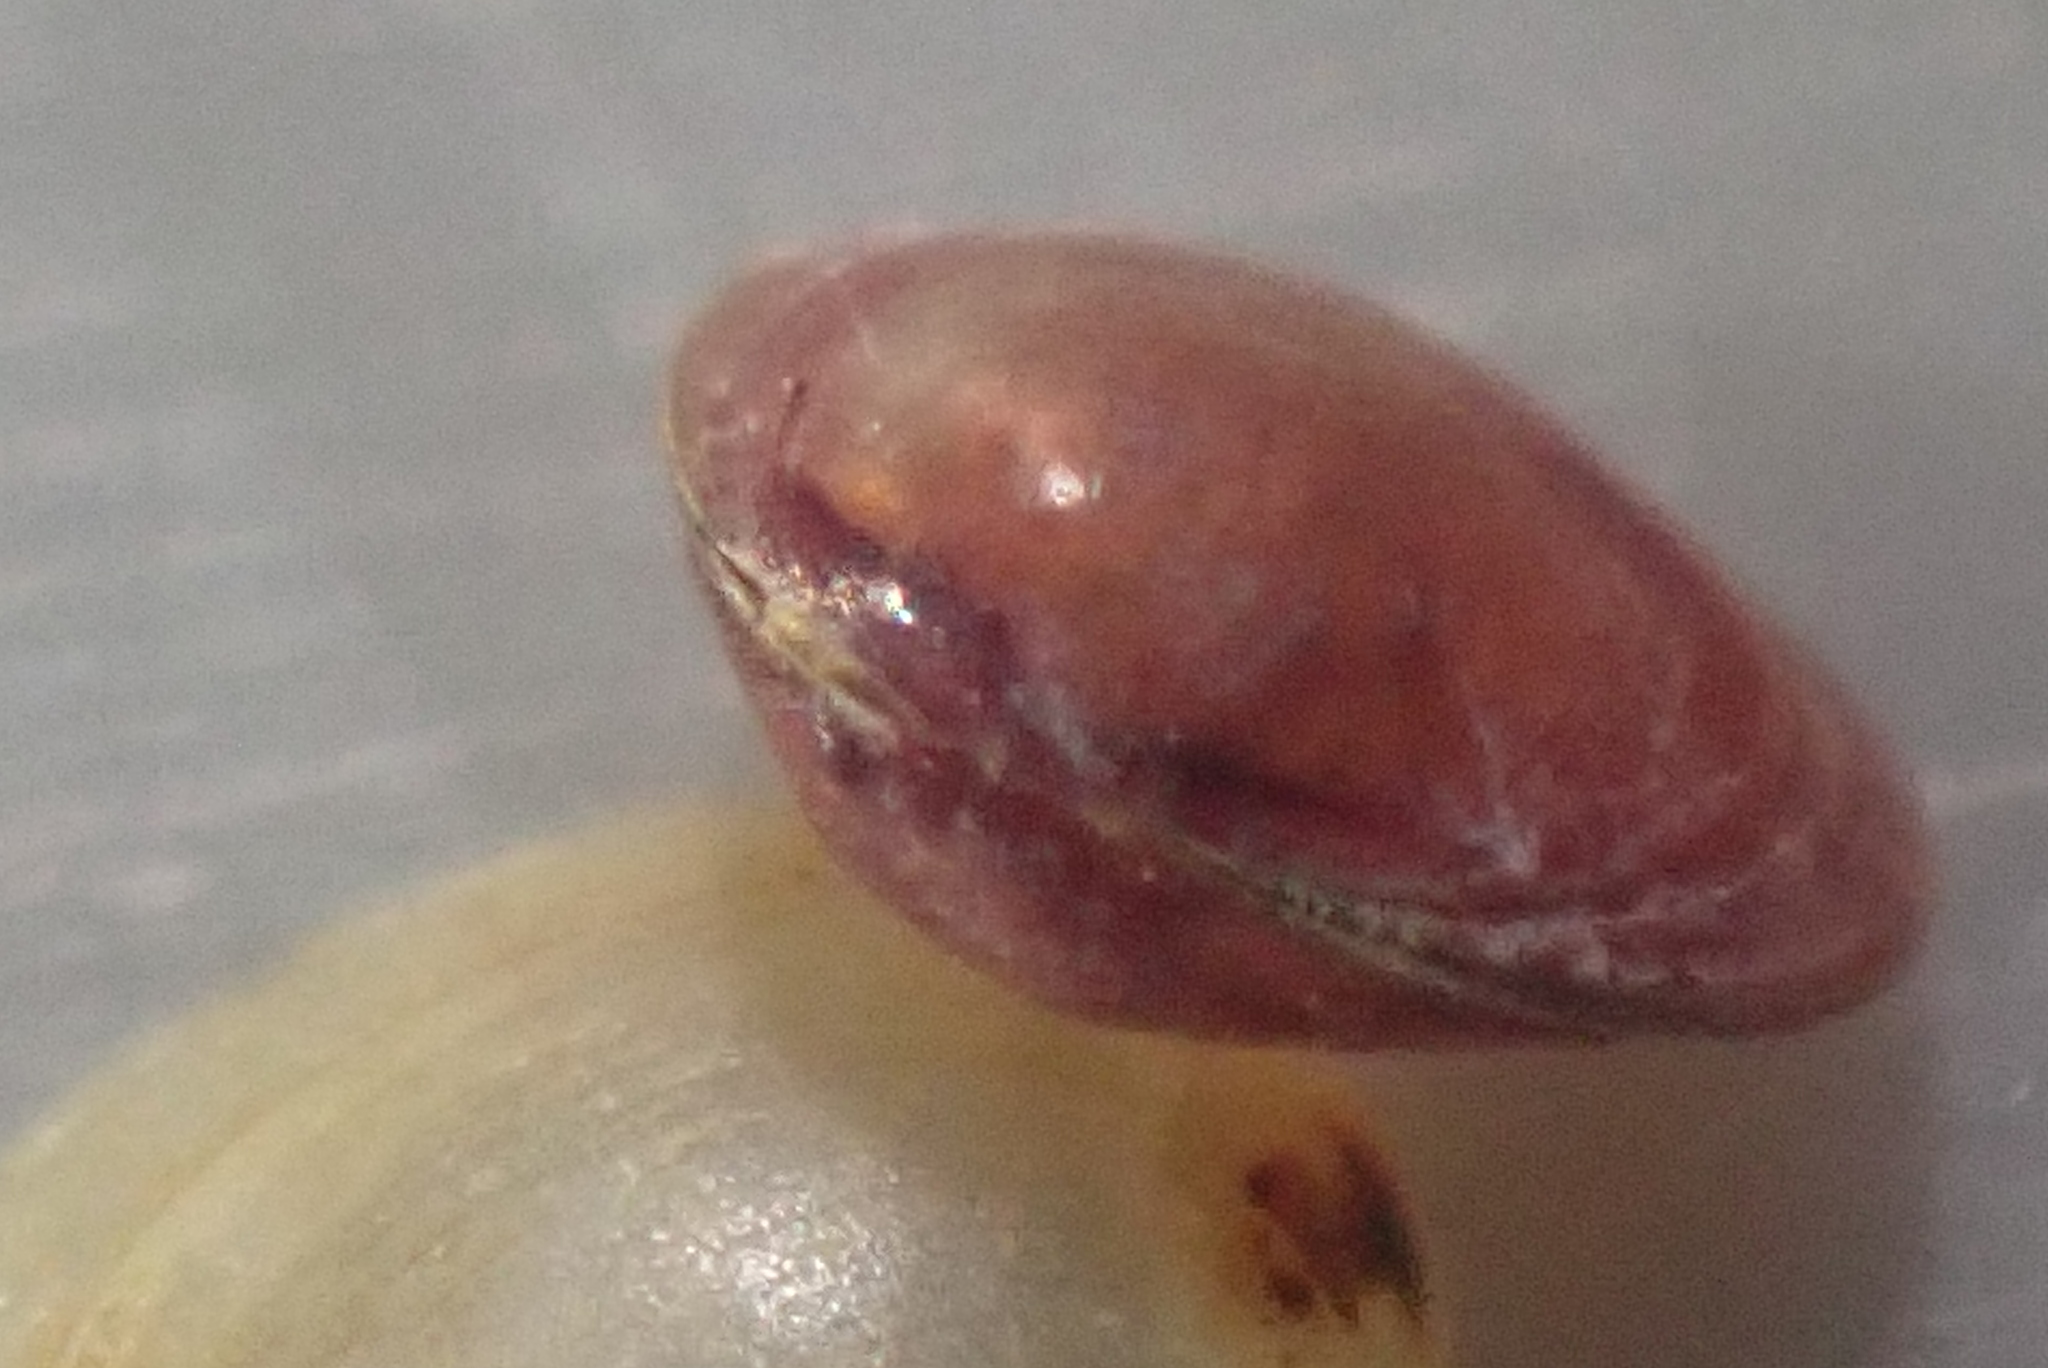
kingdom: Animalia
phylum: Mollusca
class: Bivalvia
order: Galeommatida
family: Lasaeidae
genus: Lasaea
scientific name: Lasaea hinemoa
